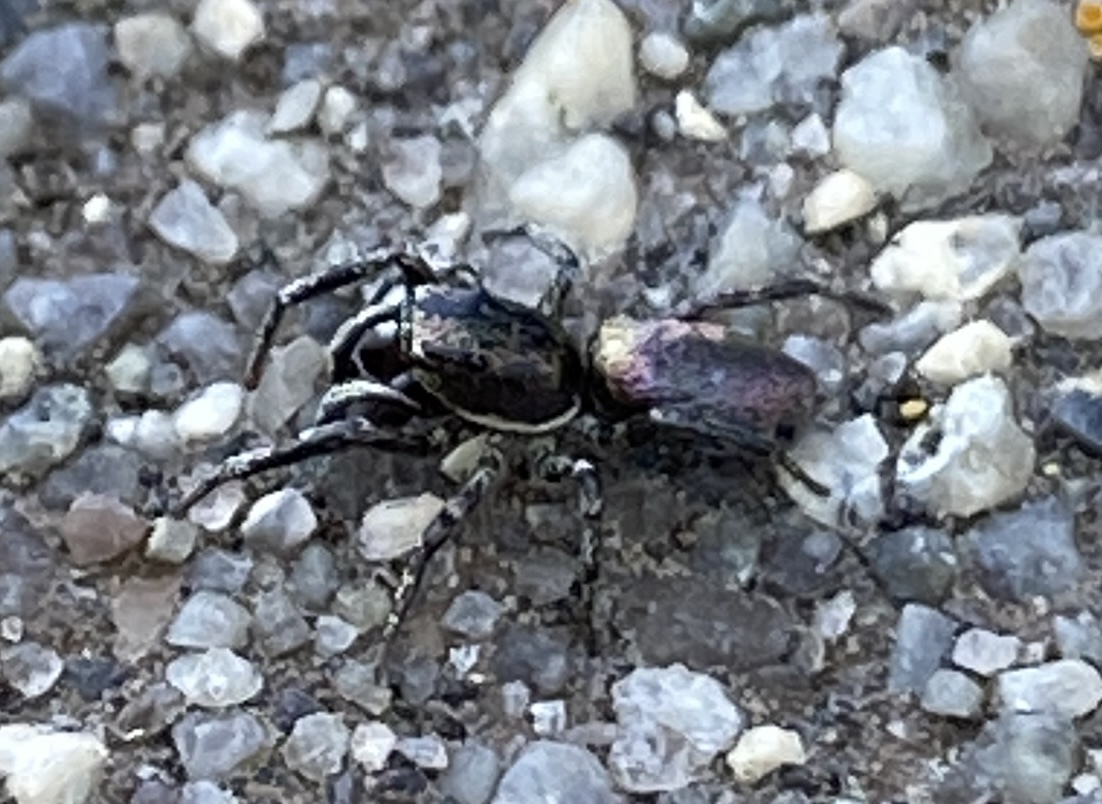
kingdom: Animalia
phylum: Arthropoda
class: Arachnida
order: Araneae
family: Salticidae
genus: Salticus
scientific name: Salticus peckhamae
